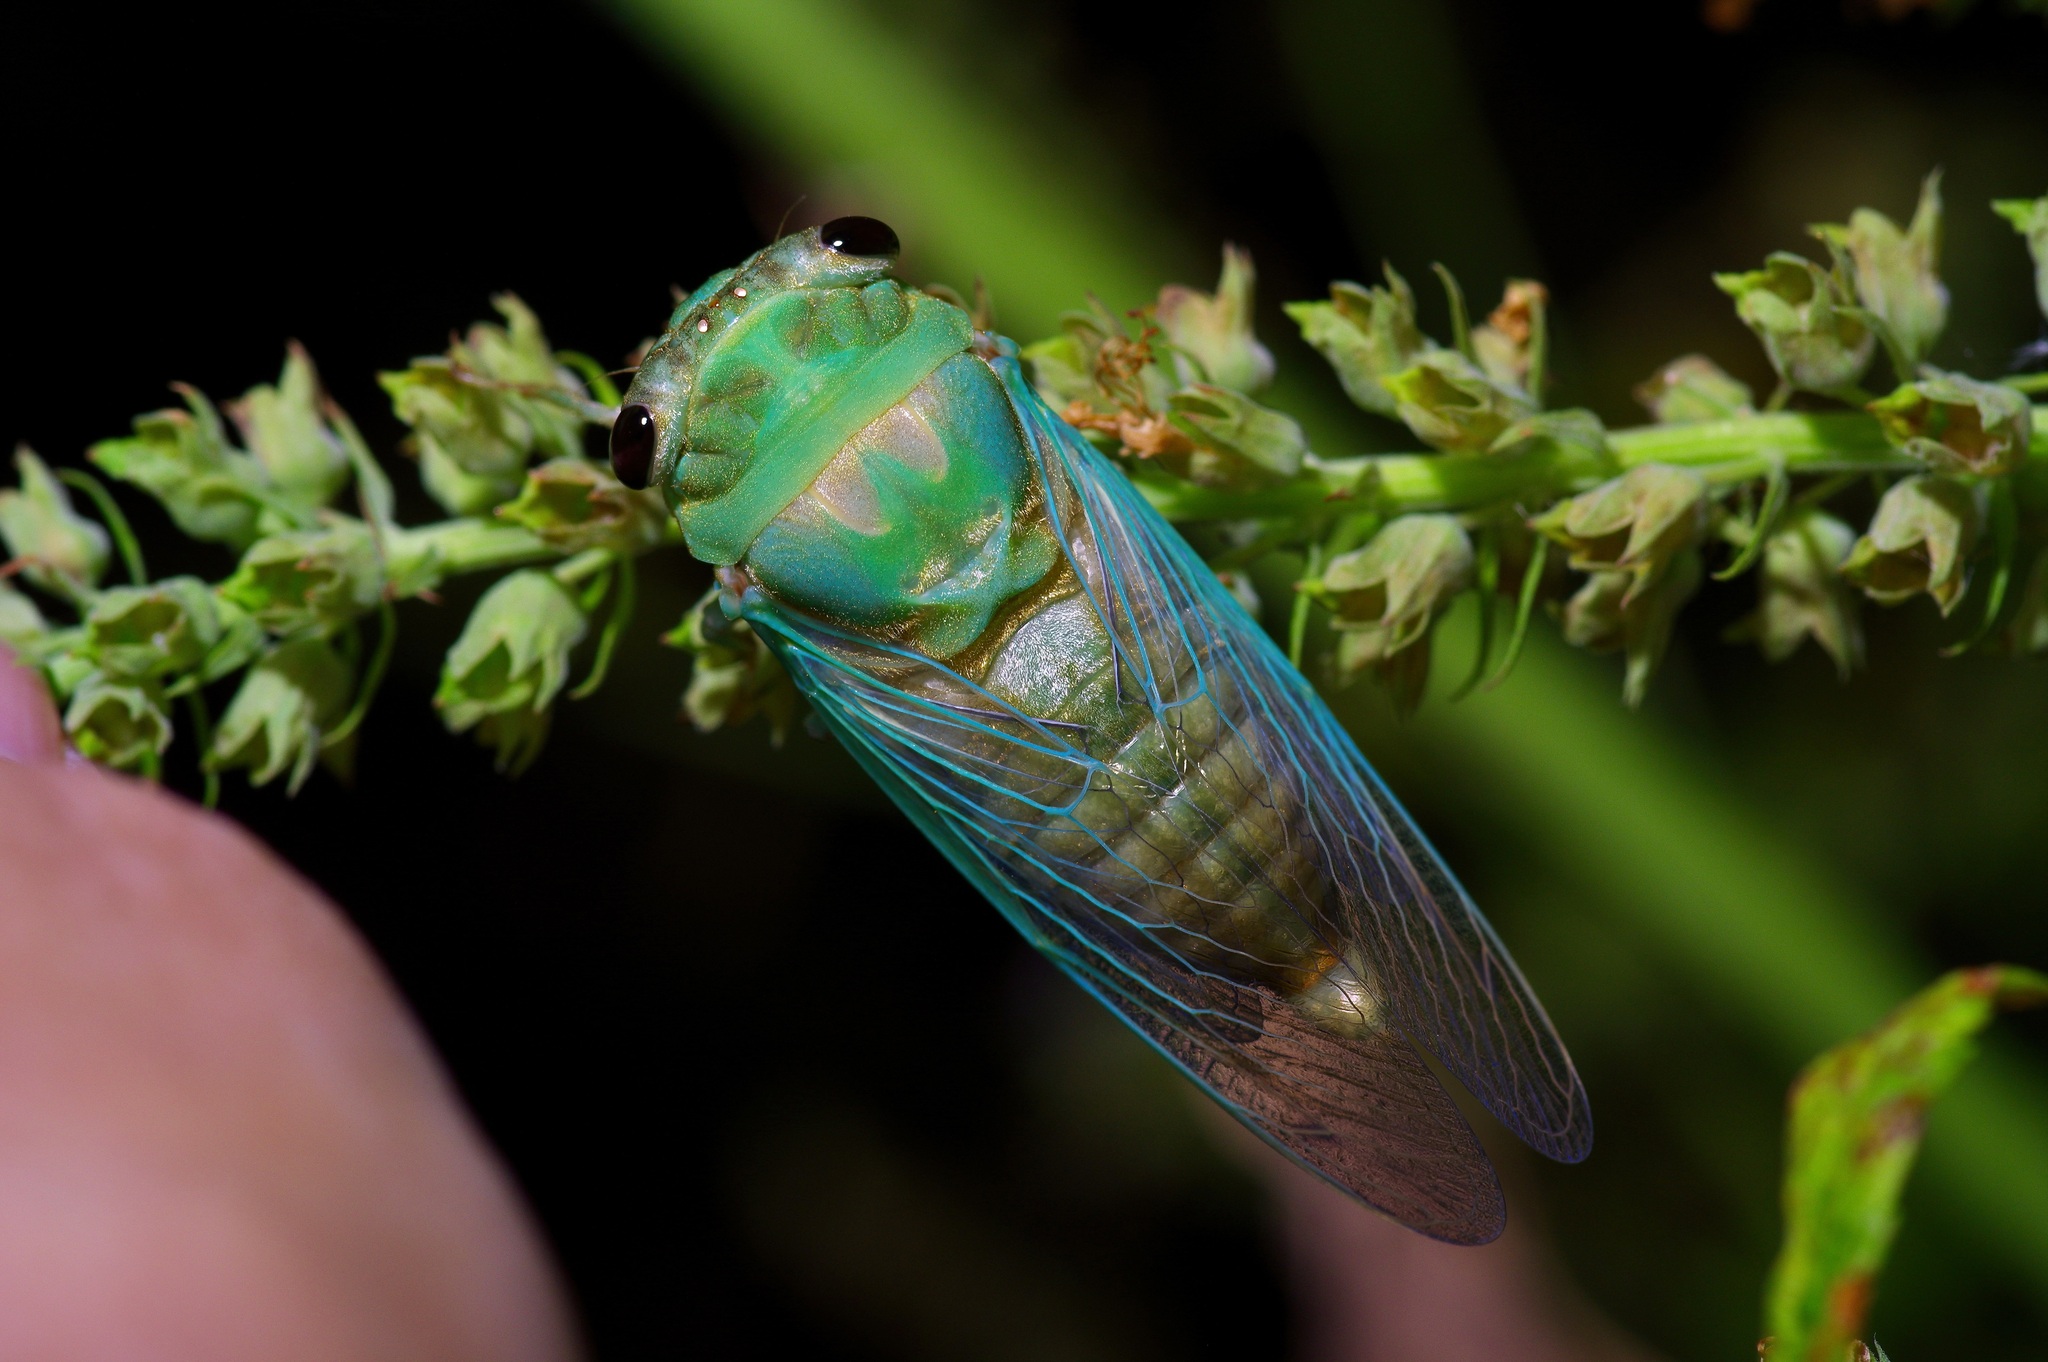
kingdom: Animalia
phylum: Arthropoda
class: Insecta
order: Hemiptera
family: Cicadidae
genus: Neotibicen
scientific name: Neotibicen superbus
